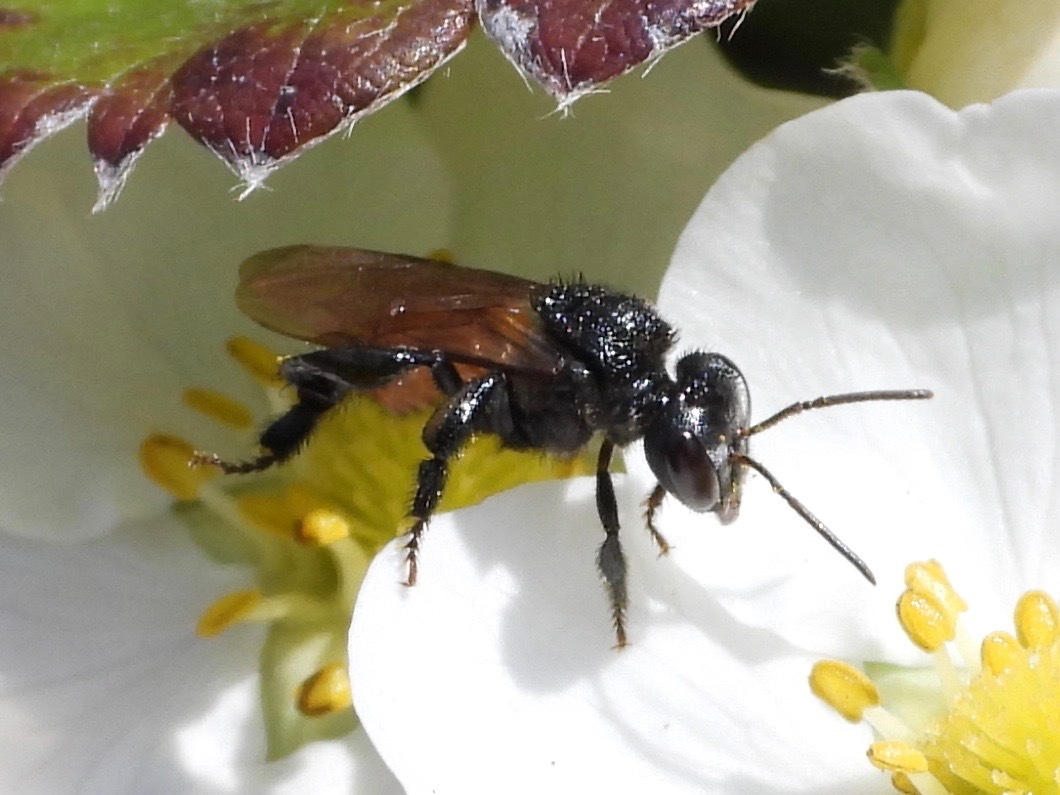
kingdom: Animalia
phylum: Arthropoda
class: Insecta
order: Hymenoptera
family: Apidae
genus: Trigona
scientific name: Trigona fulviventris
